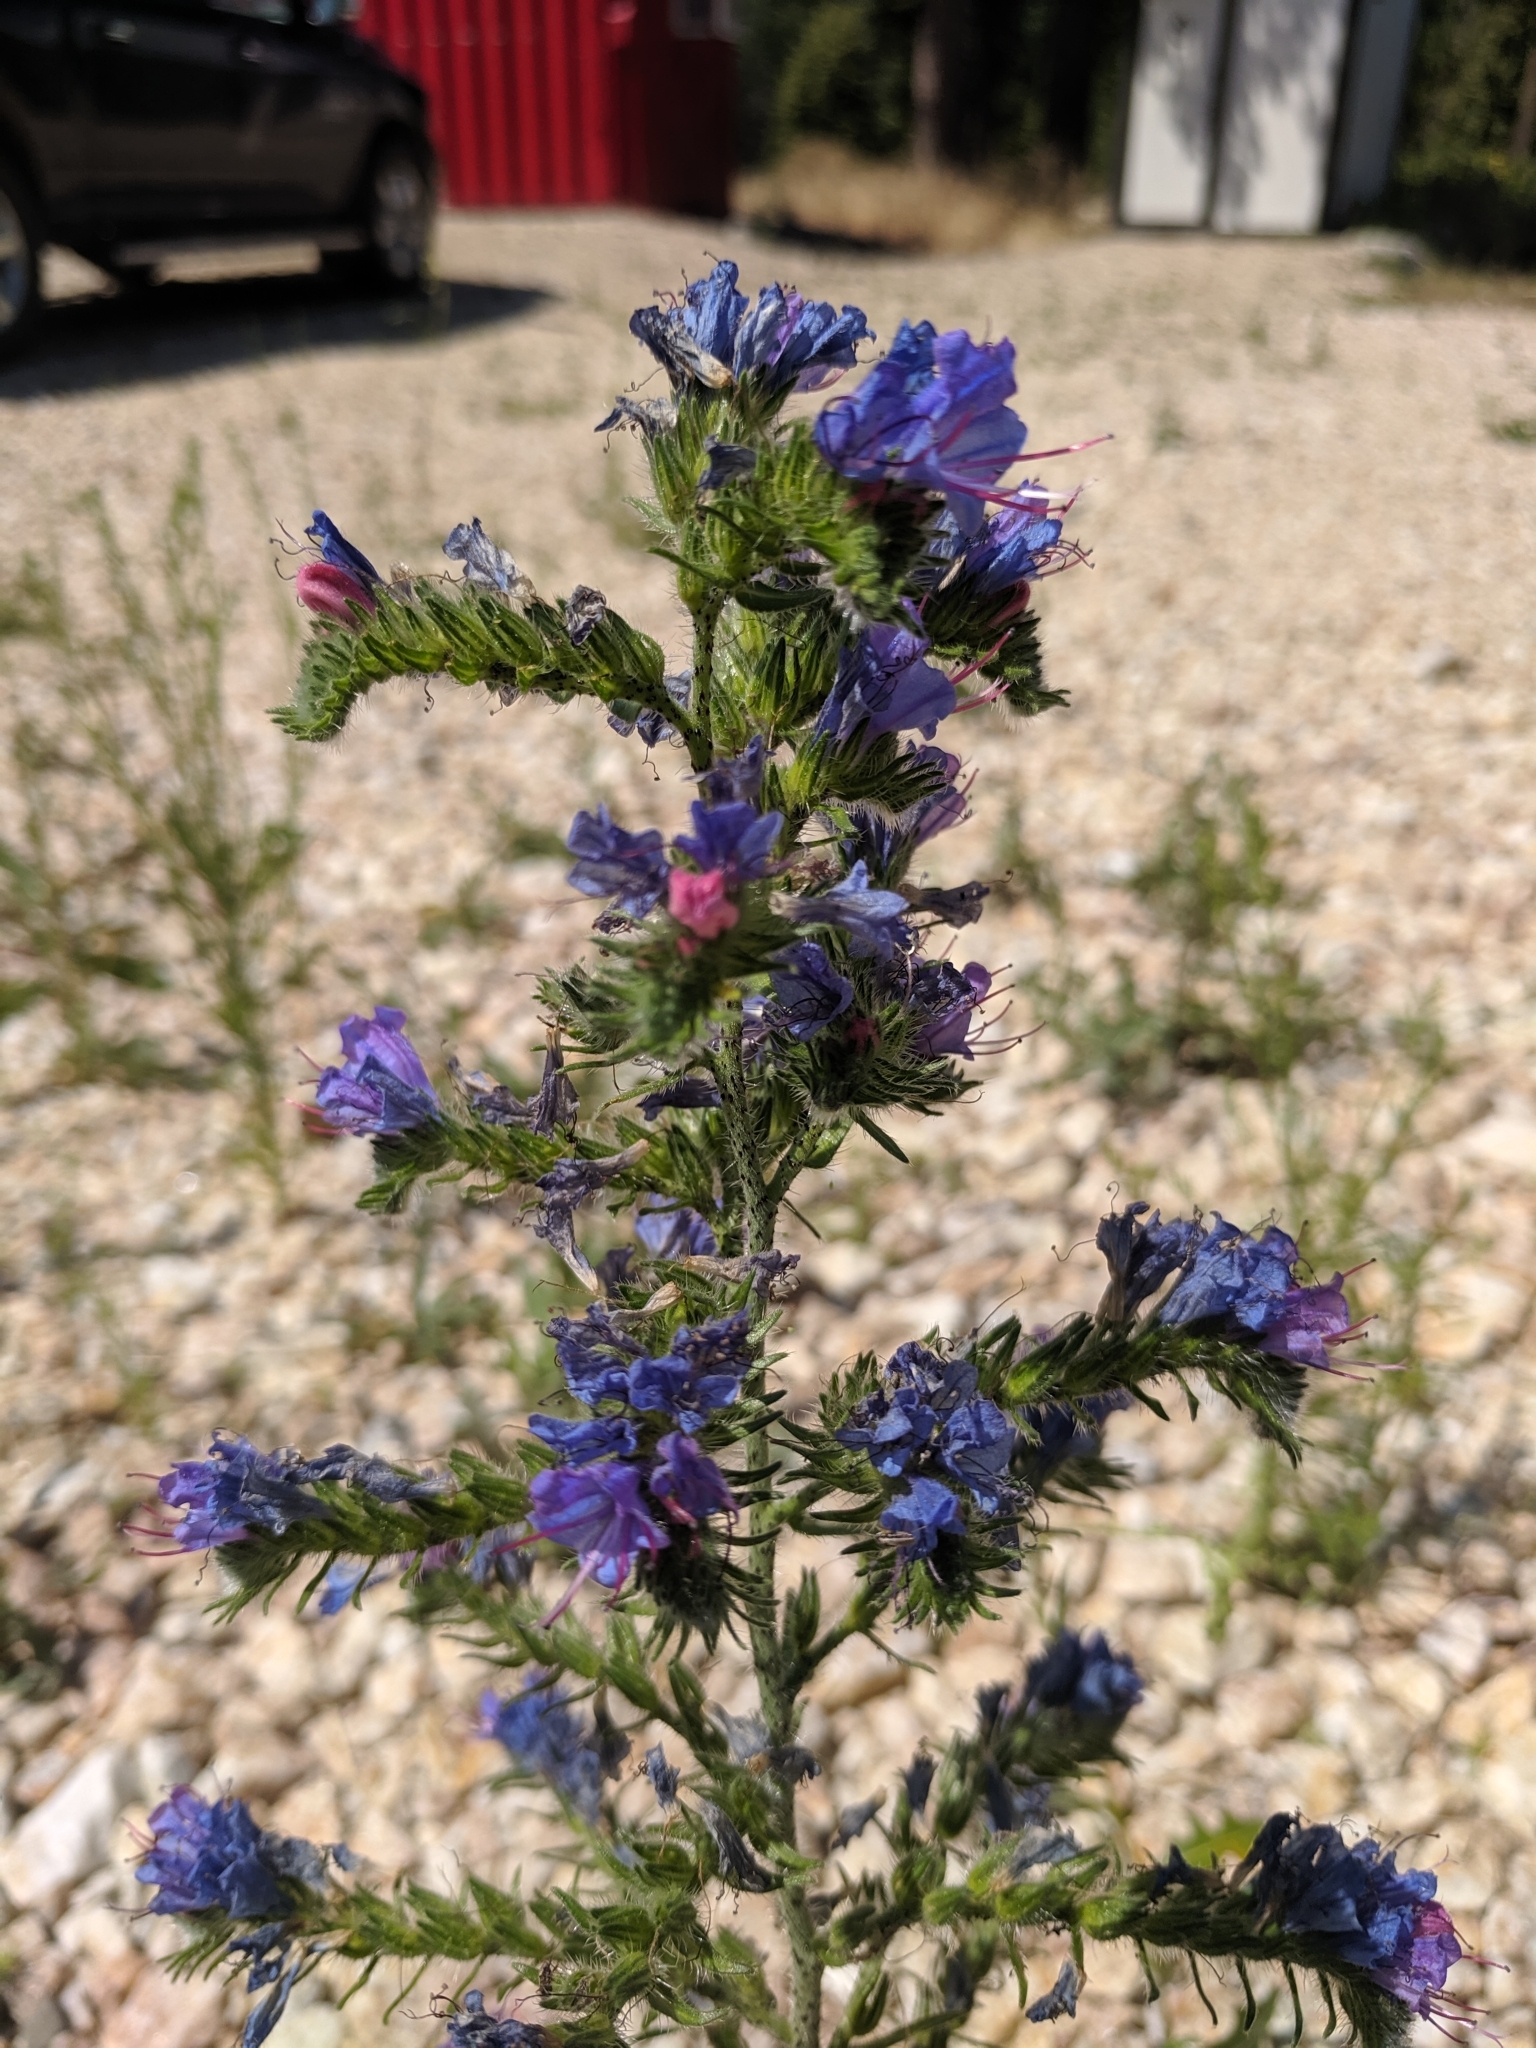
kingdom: Plantae
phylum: Tracheophyta
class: Magnoliopsida
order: Boraginales
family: Boraginaceae
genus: Echium
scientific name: Echium vulgare
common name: Common viper's bugloss
